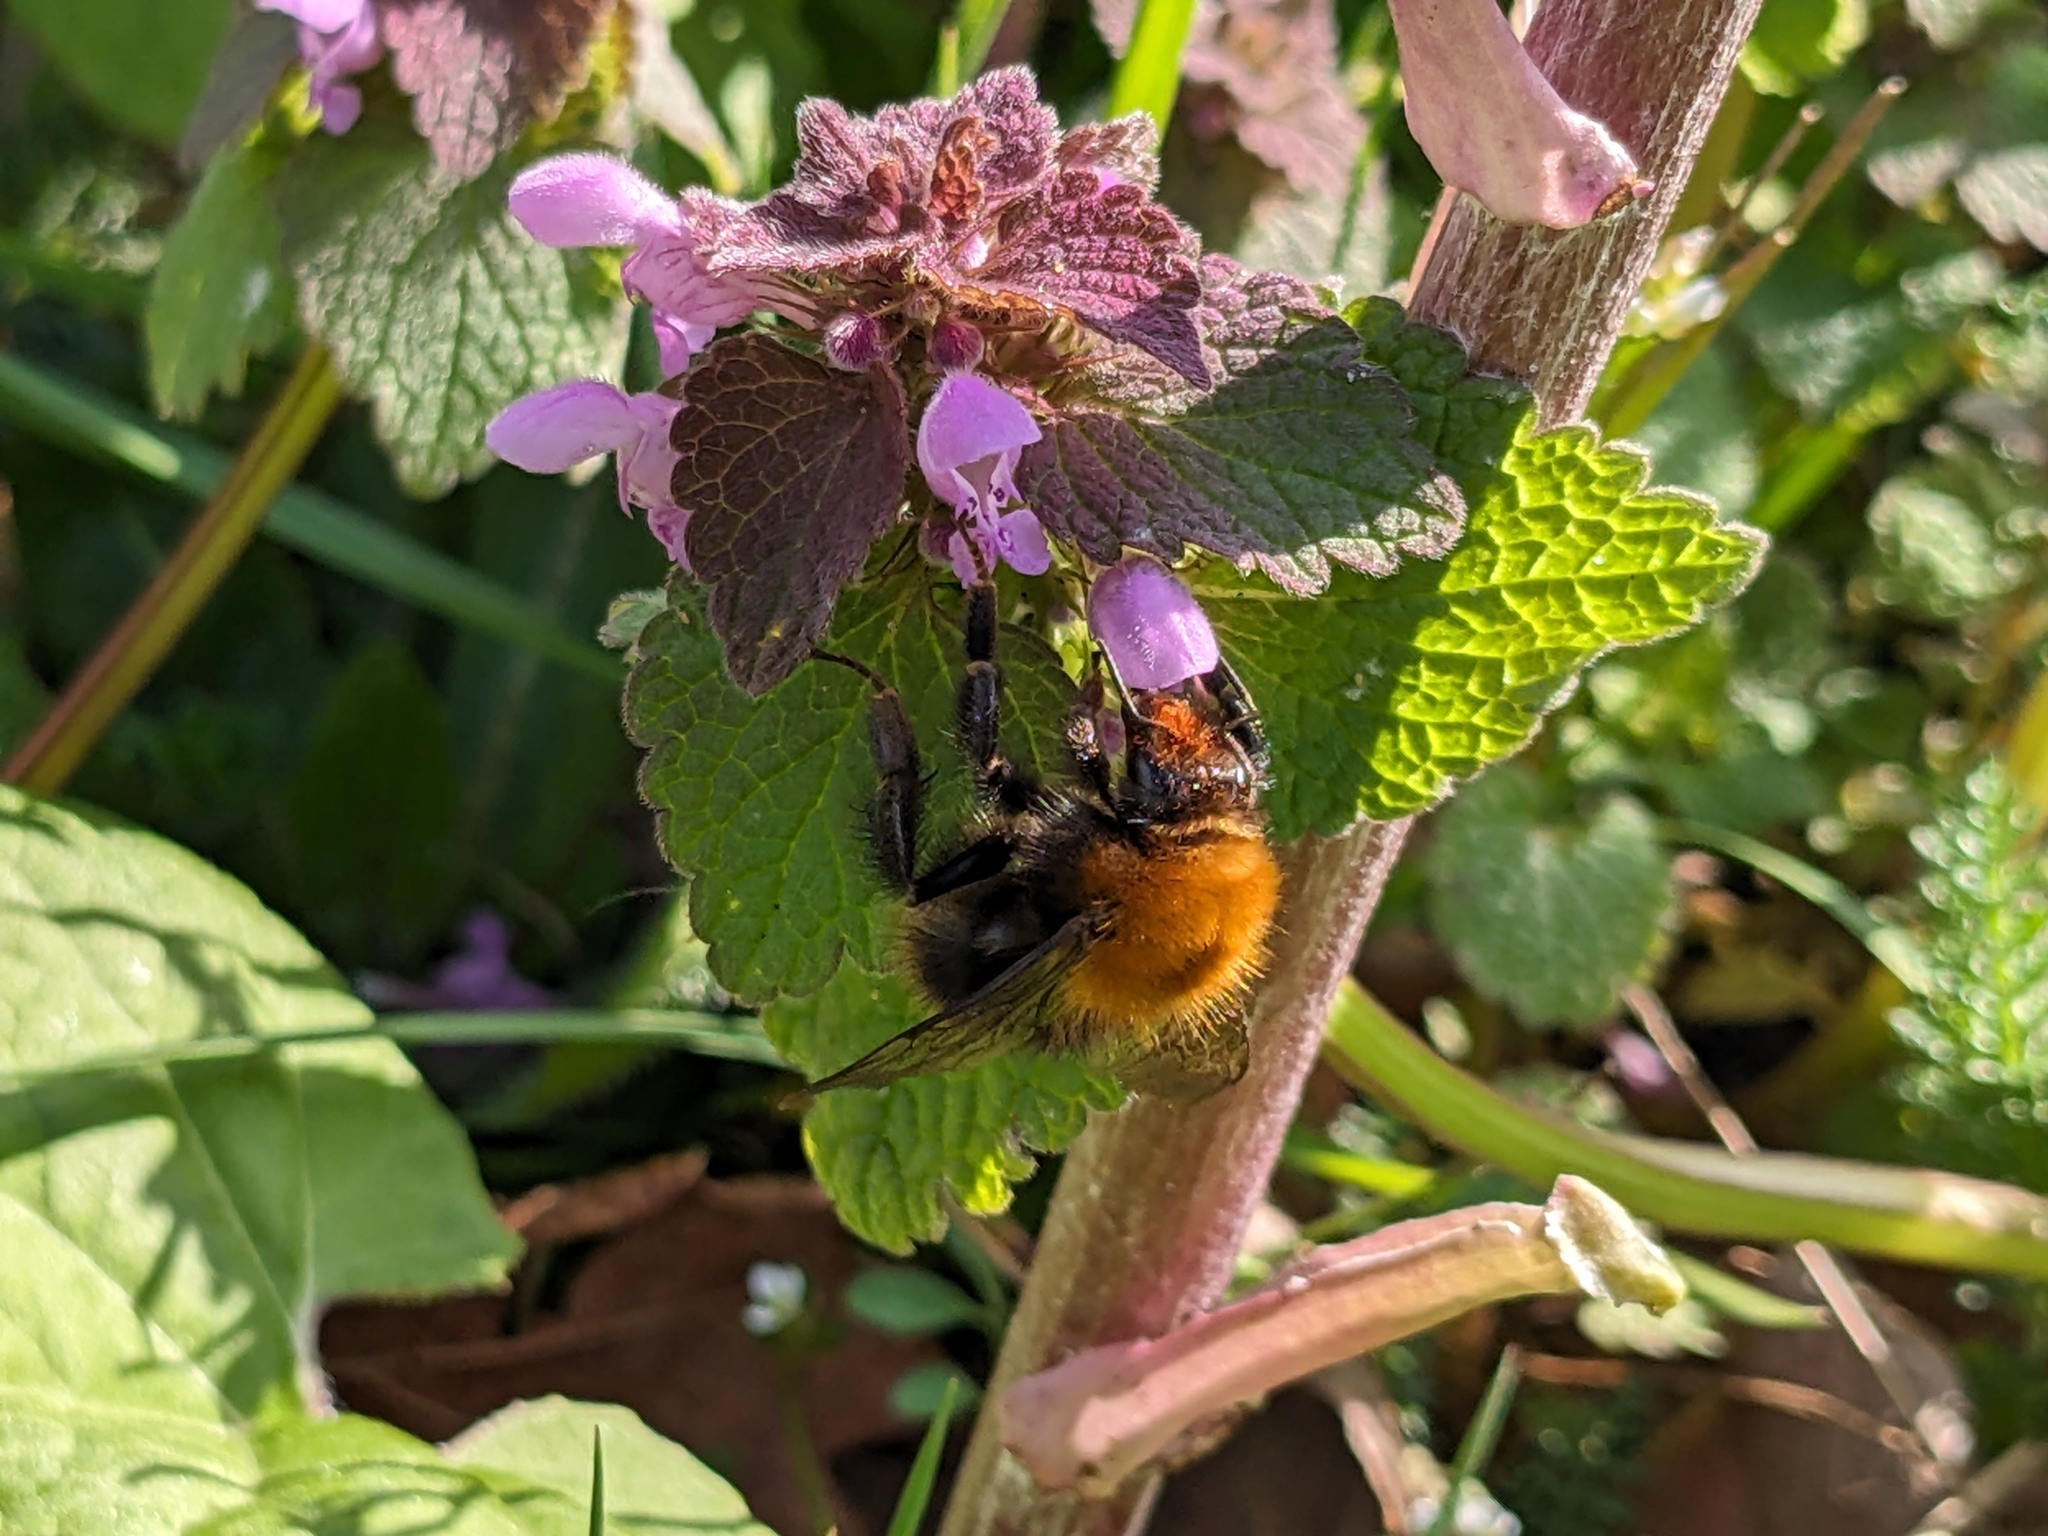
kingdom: Animalia
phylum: Arthropoda
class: Insecta
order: Hymenoptera
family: Apidae
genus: Bombus
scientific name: Bombus pascuorum
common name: Common carder bee
